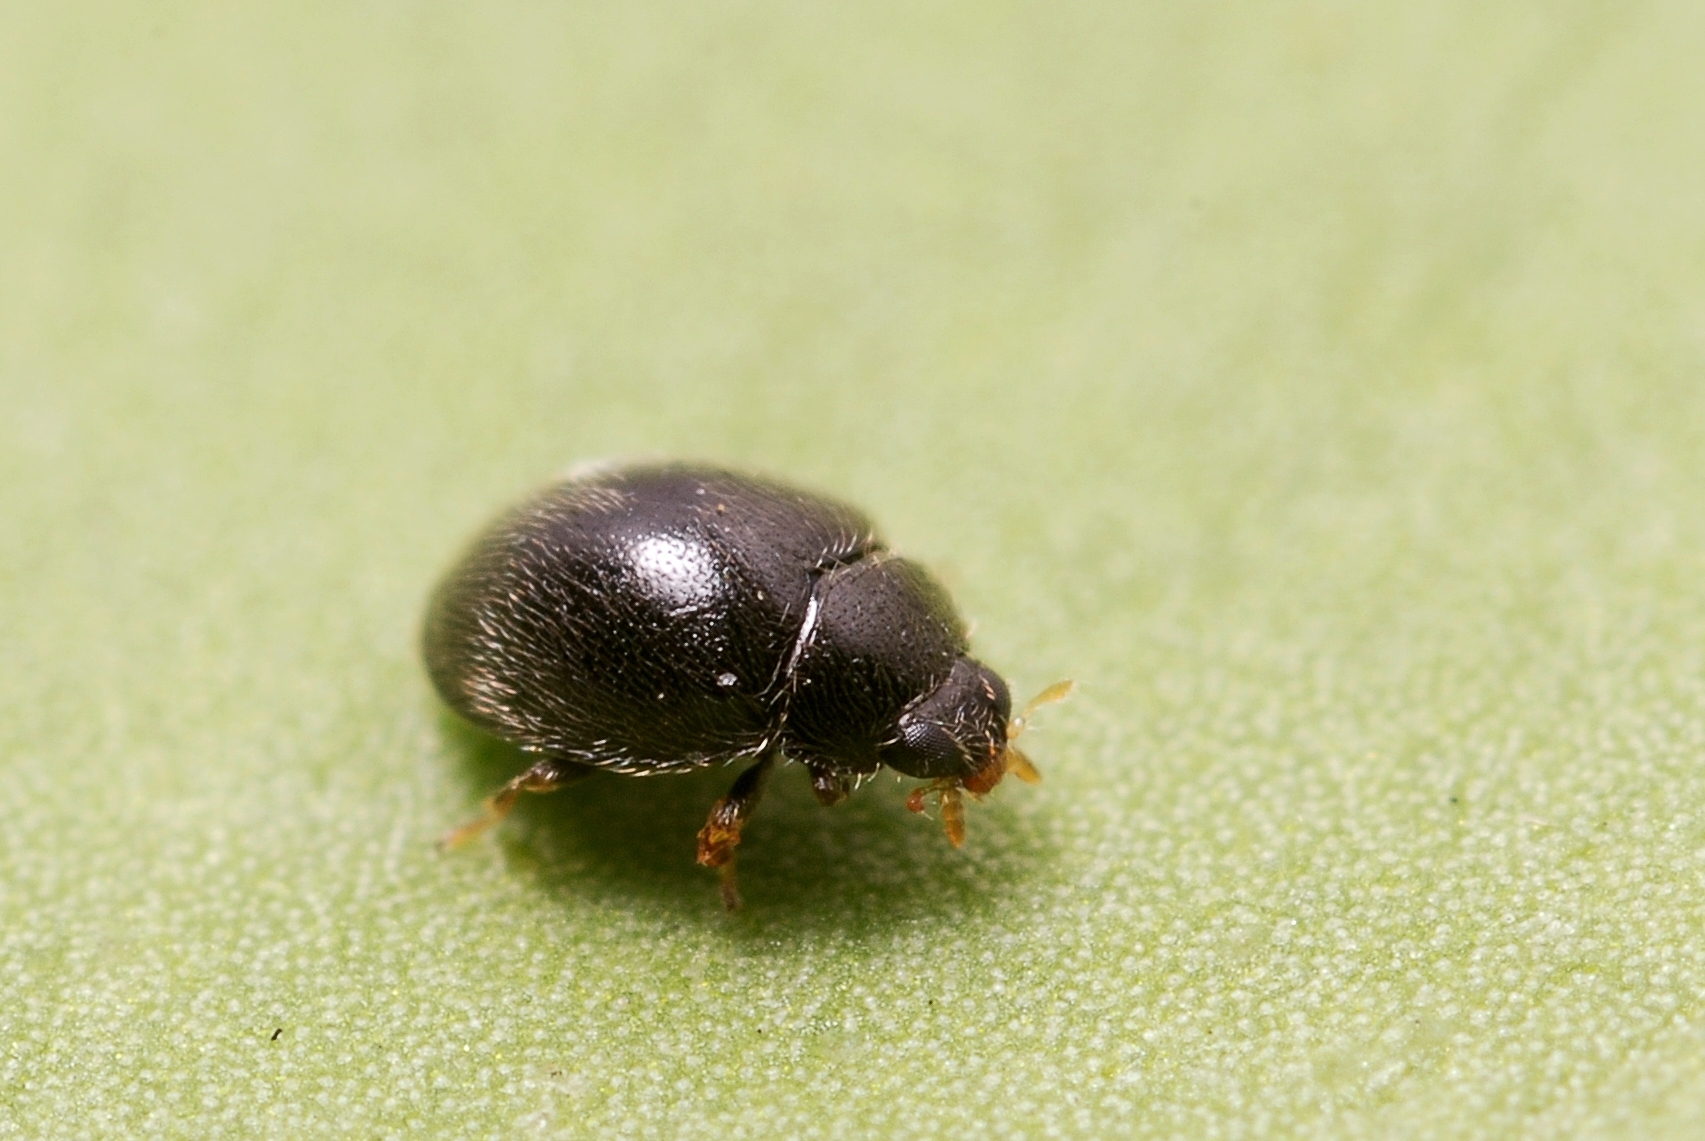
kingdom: Animalia
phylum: Arthropoda
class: Insecta
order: Coleoptera
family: Coccinellidae
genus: Stethorus
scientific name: Stethorus pusillus
